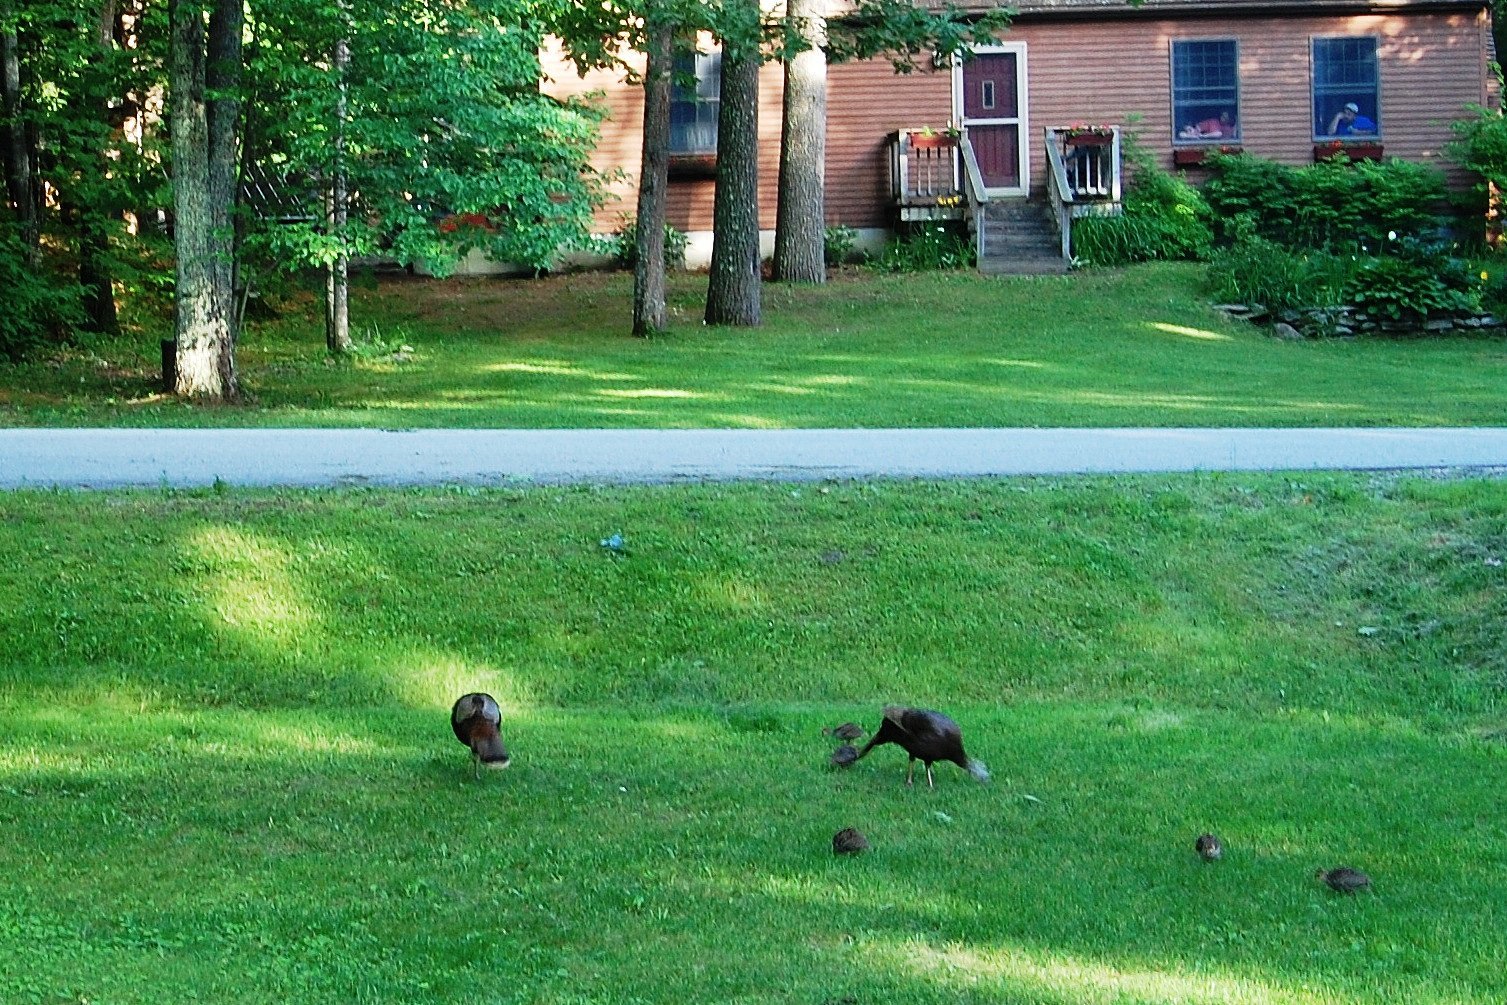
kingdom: Animalia
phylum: Chordata
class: Aves
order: Galliformes
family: Phasianidae
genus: Meleagris
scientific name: Meleagris gallopavo
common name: Wild turkey
